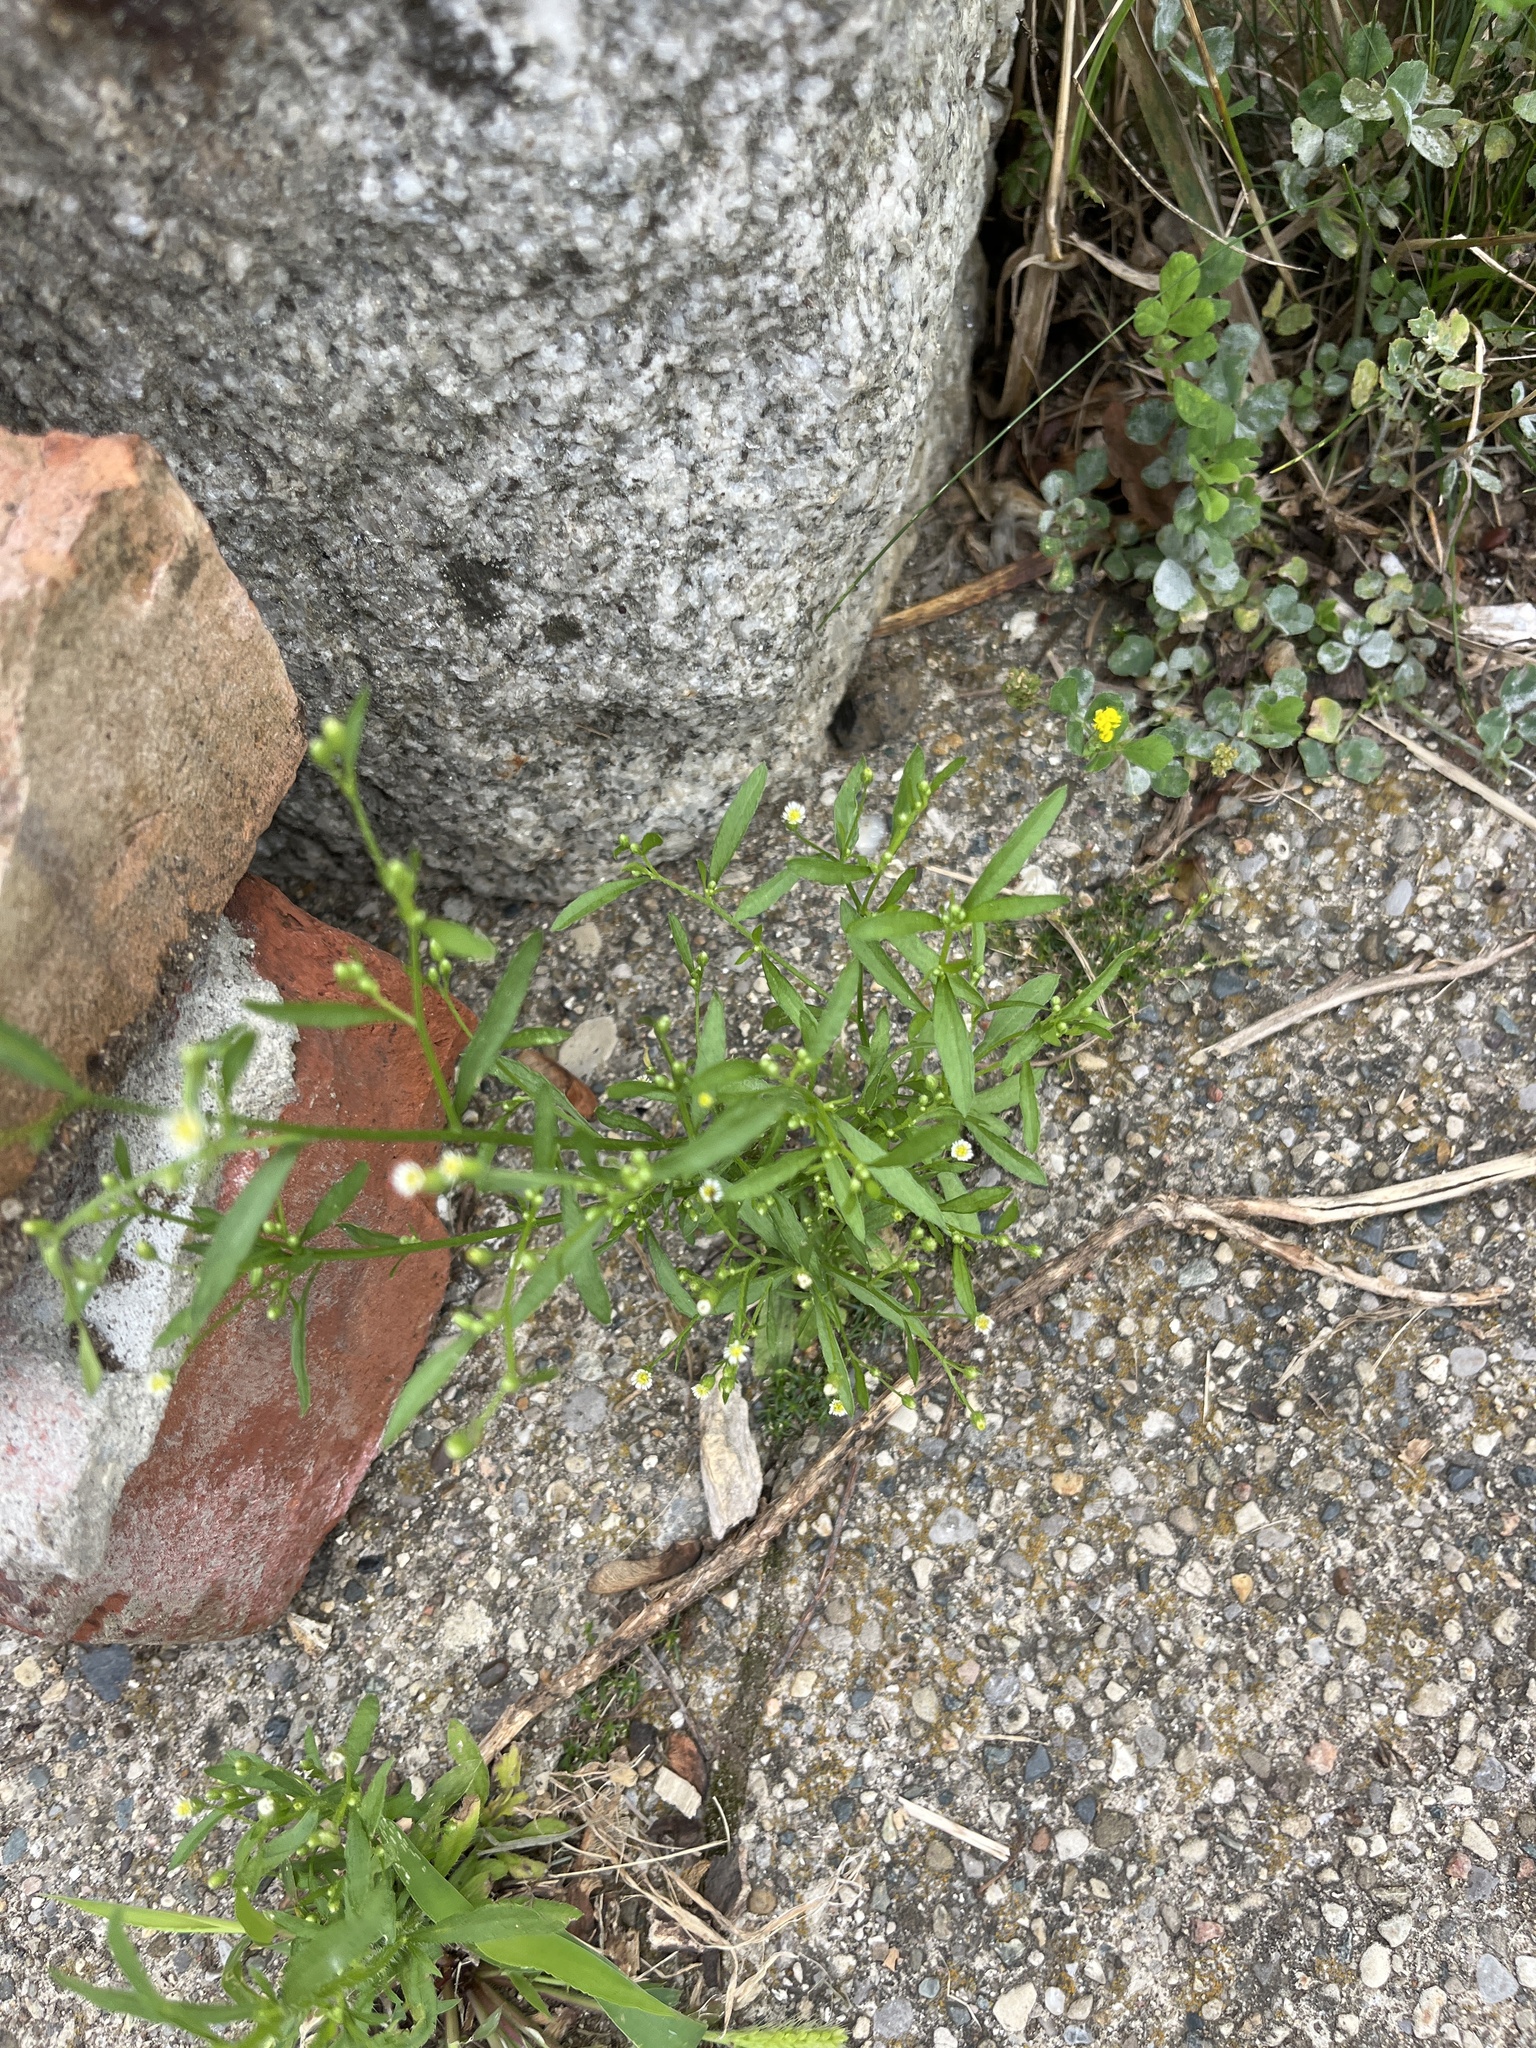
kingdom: Plantae
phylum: Tracheophyta
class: Magnoliopsida
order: Asterales
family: Asteraceae
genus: Erigeron
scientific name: Erigeron canadensis
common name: Canadian fleabane
